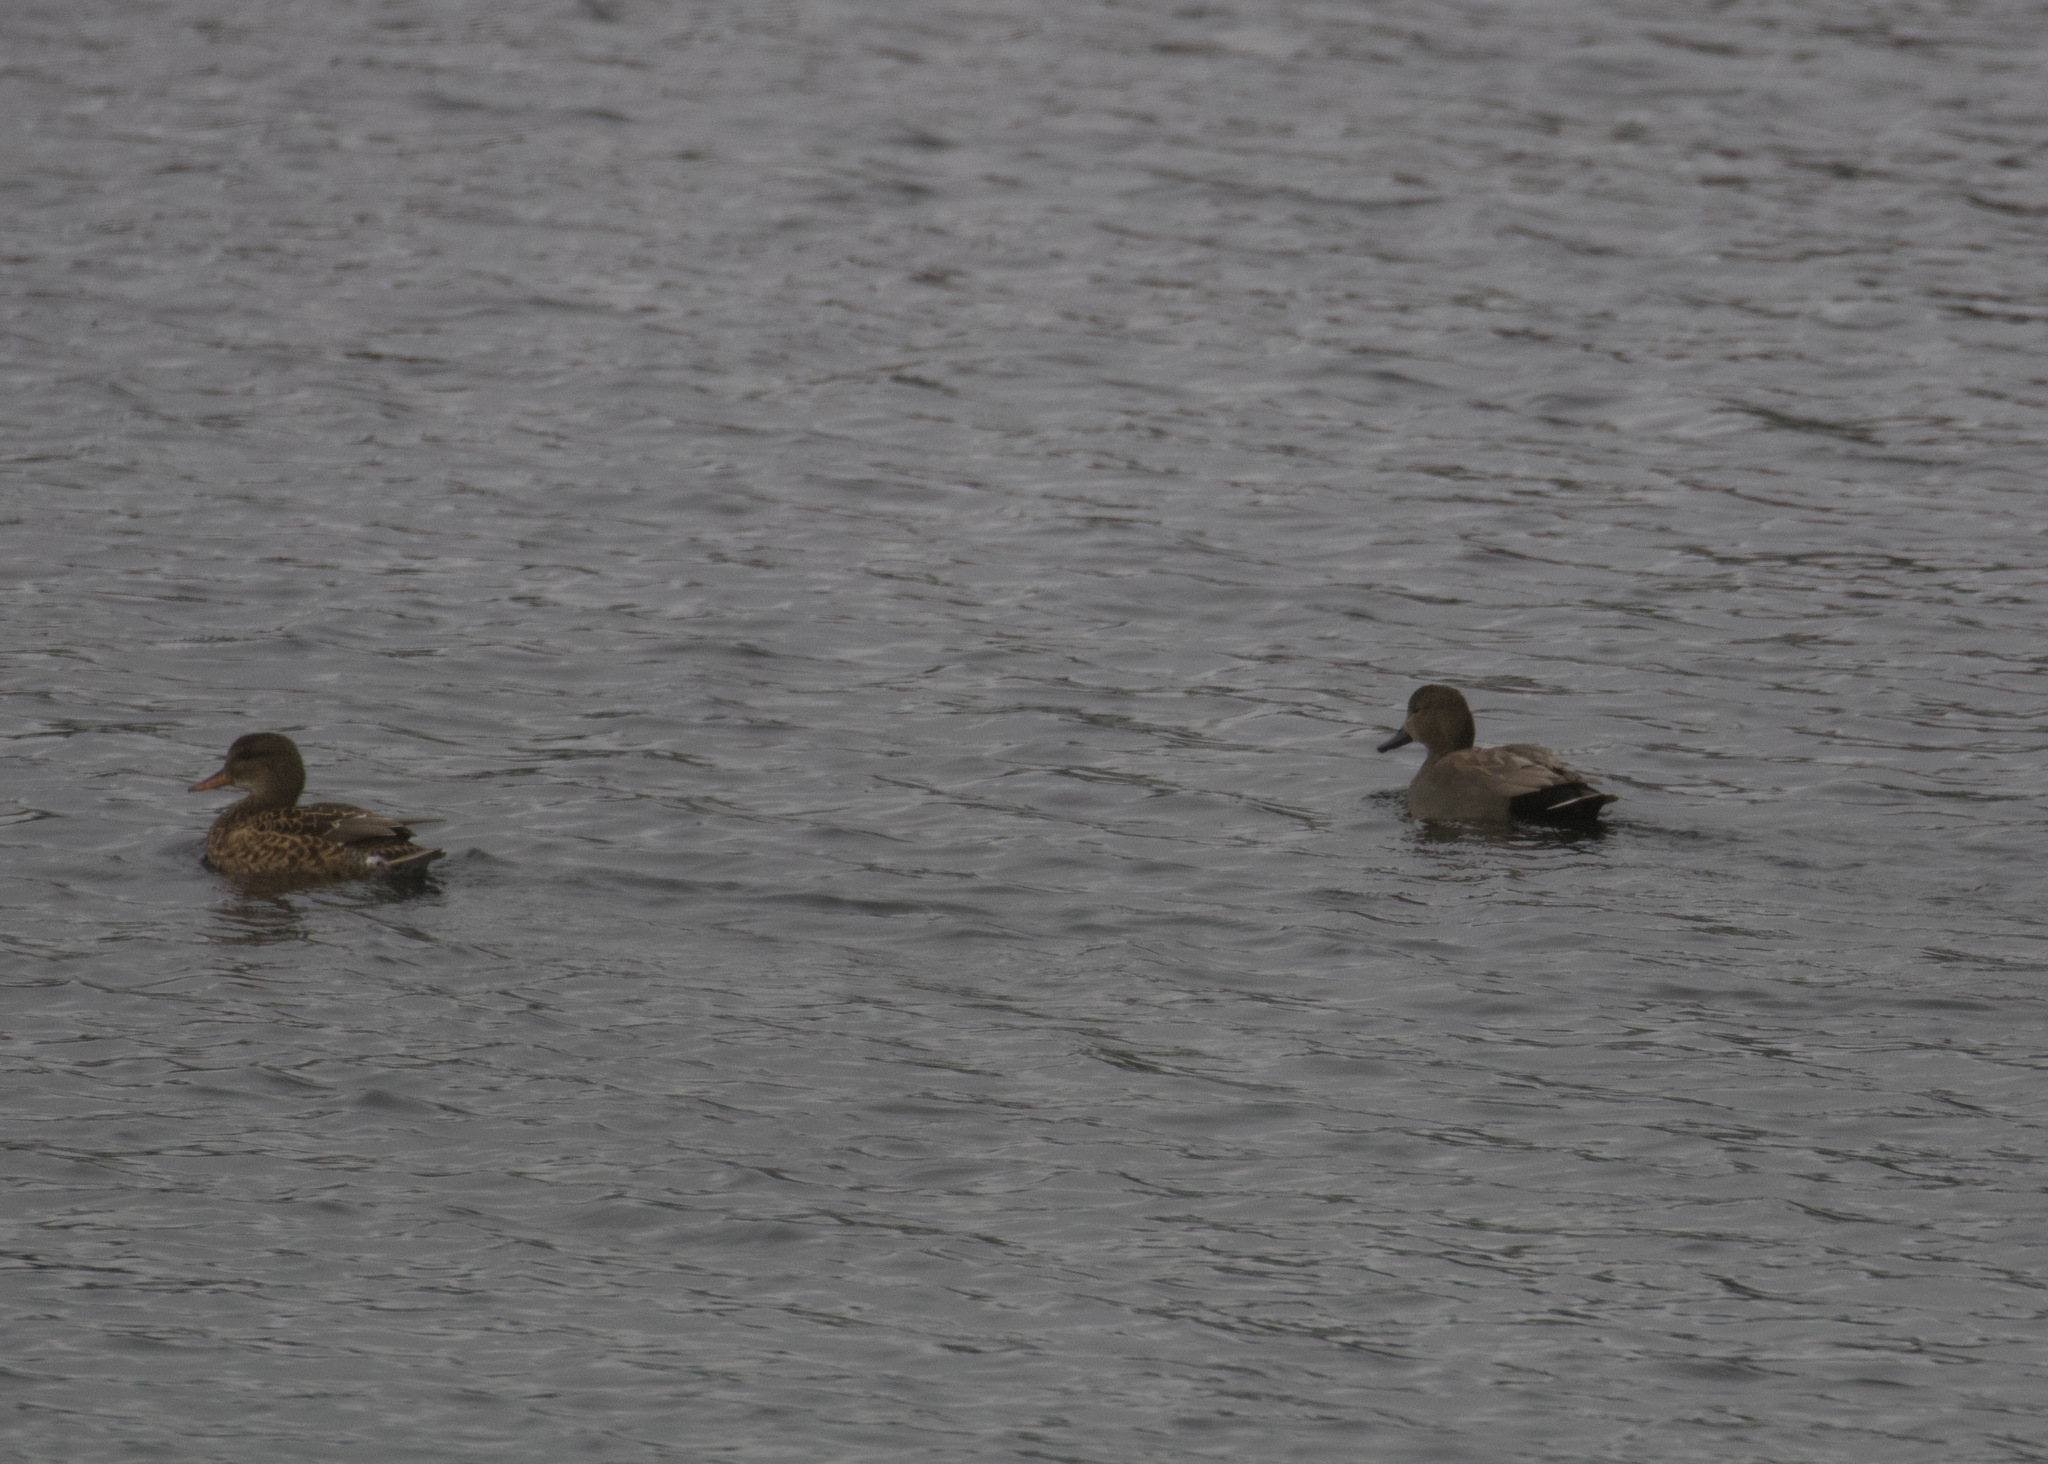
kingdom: Animalia
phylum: Chordata
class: Aves
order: Anseriformes
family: Anatidae
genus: Mareca
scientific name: Mareca strepera
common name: Gadwall
